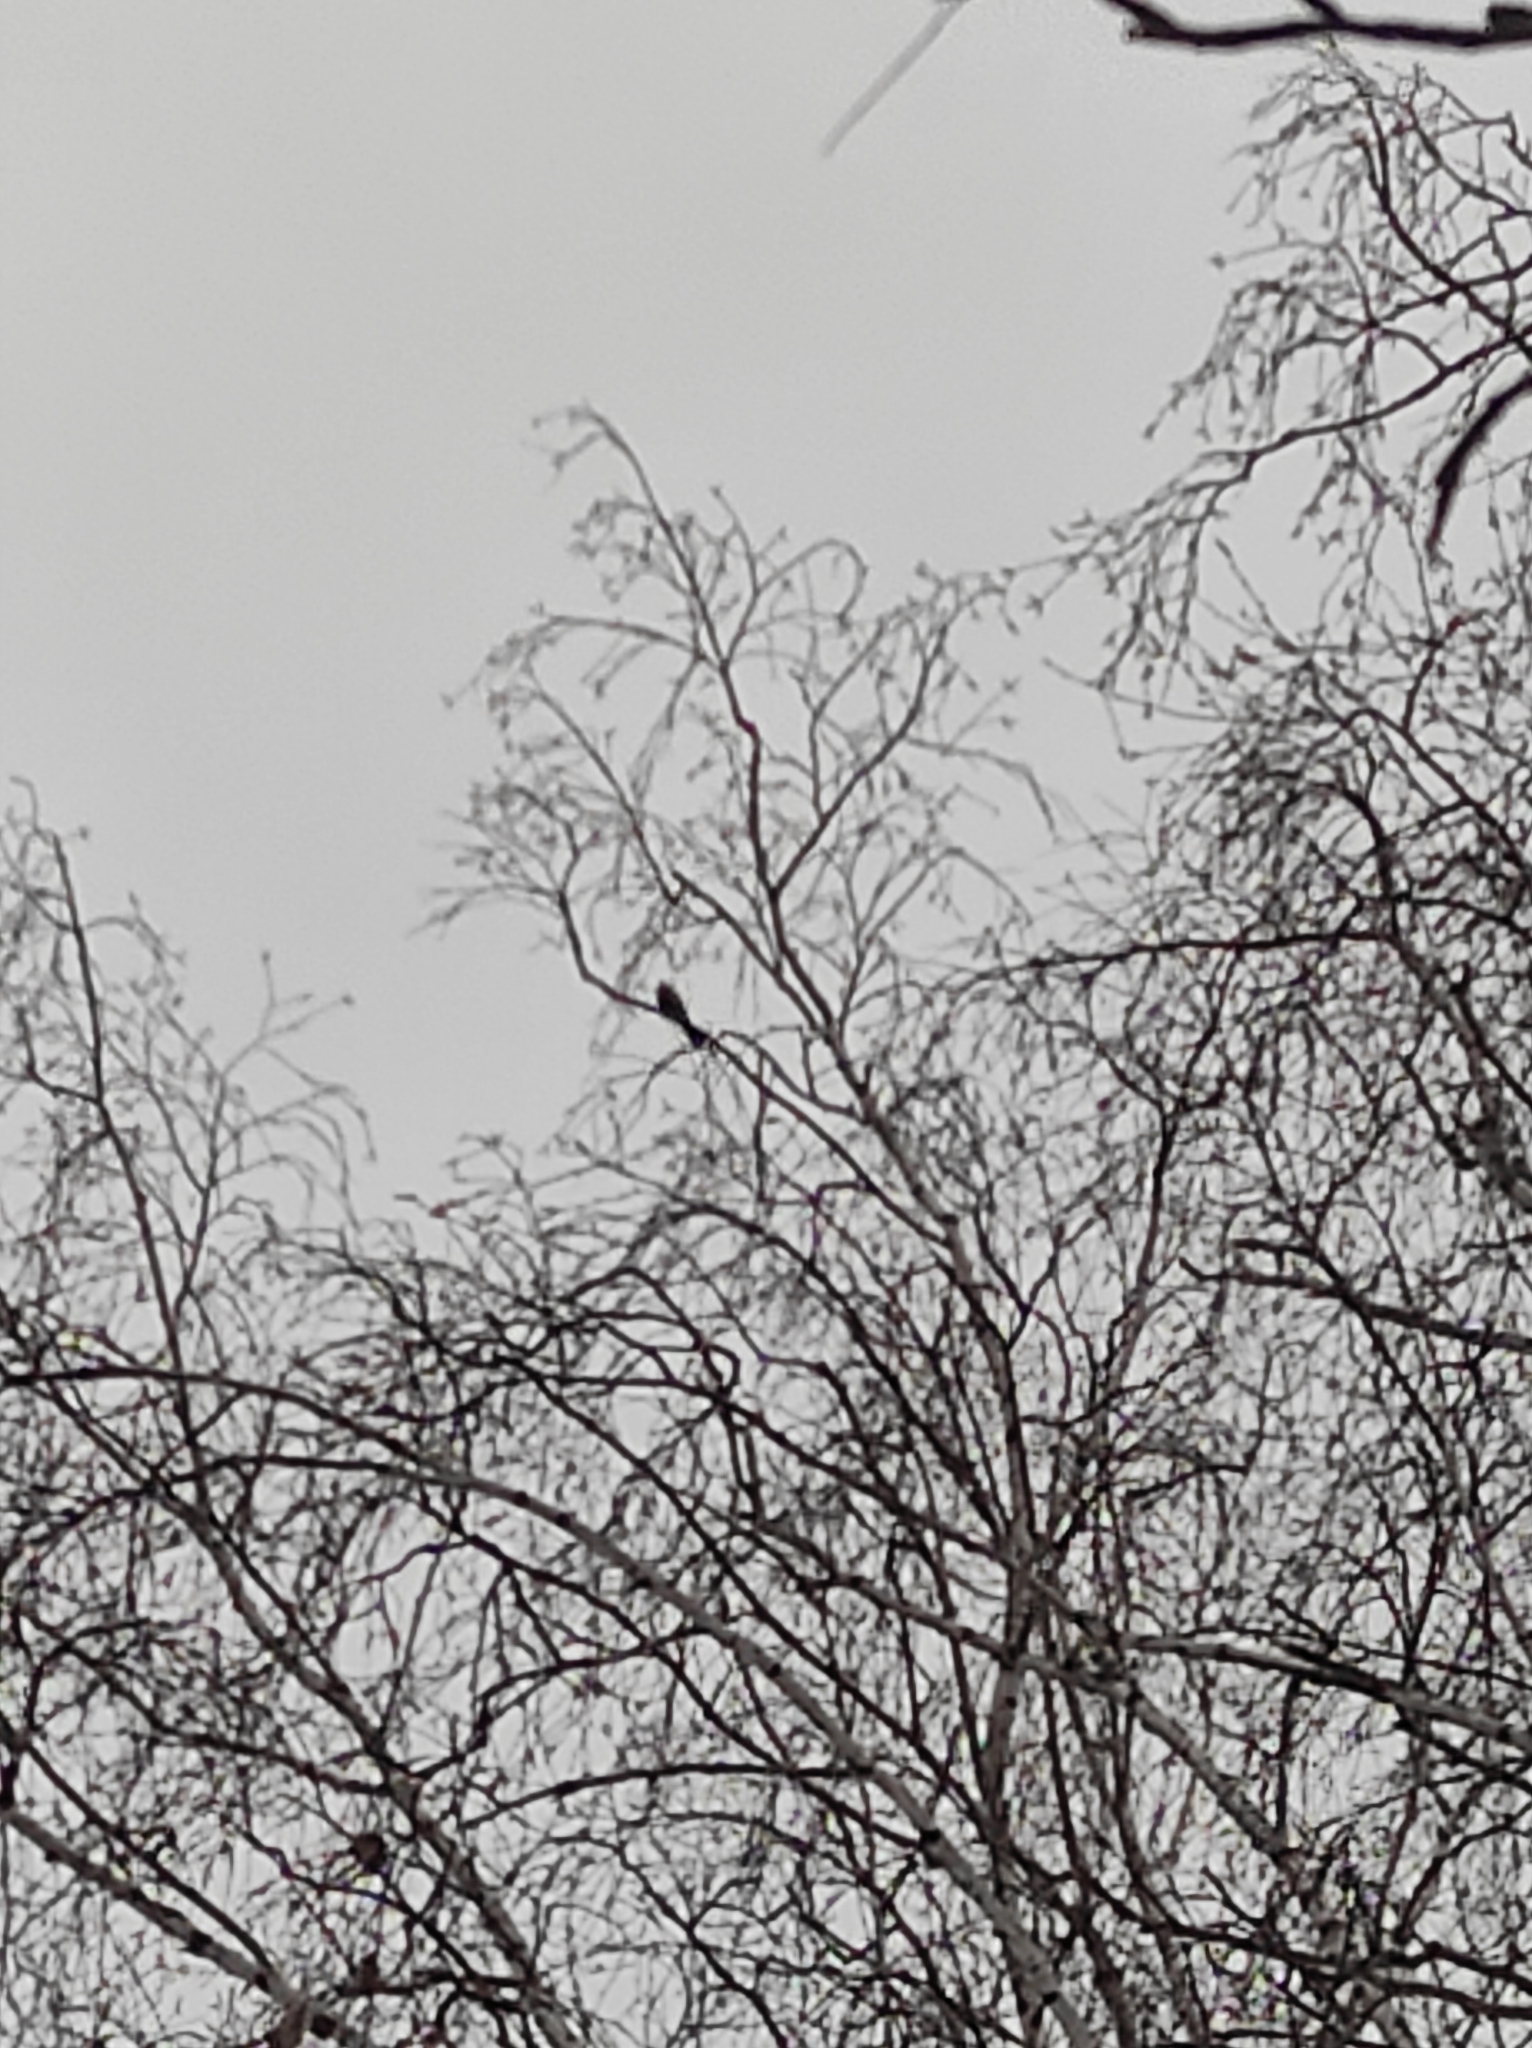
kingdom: Animalia
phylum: Chordata
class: Aves
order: Passeriformes
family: Paridae
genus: Parus
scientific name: Parus major
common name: Great tit
